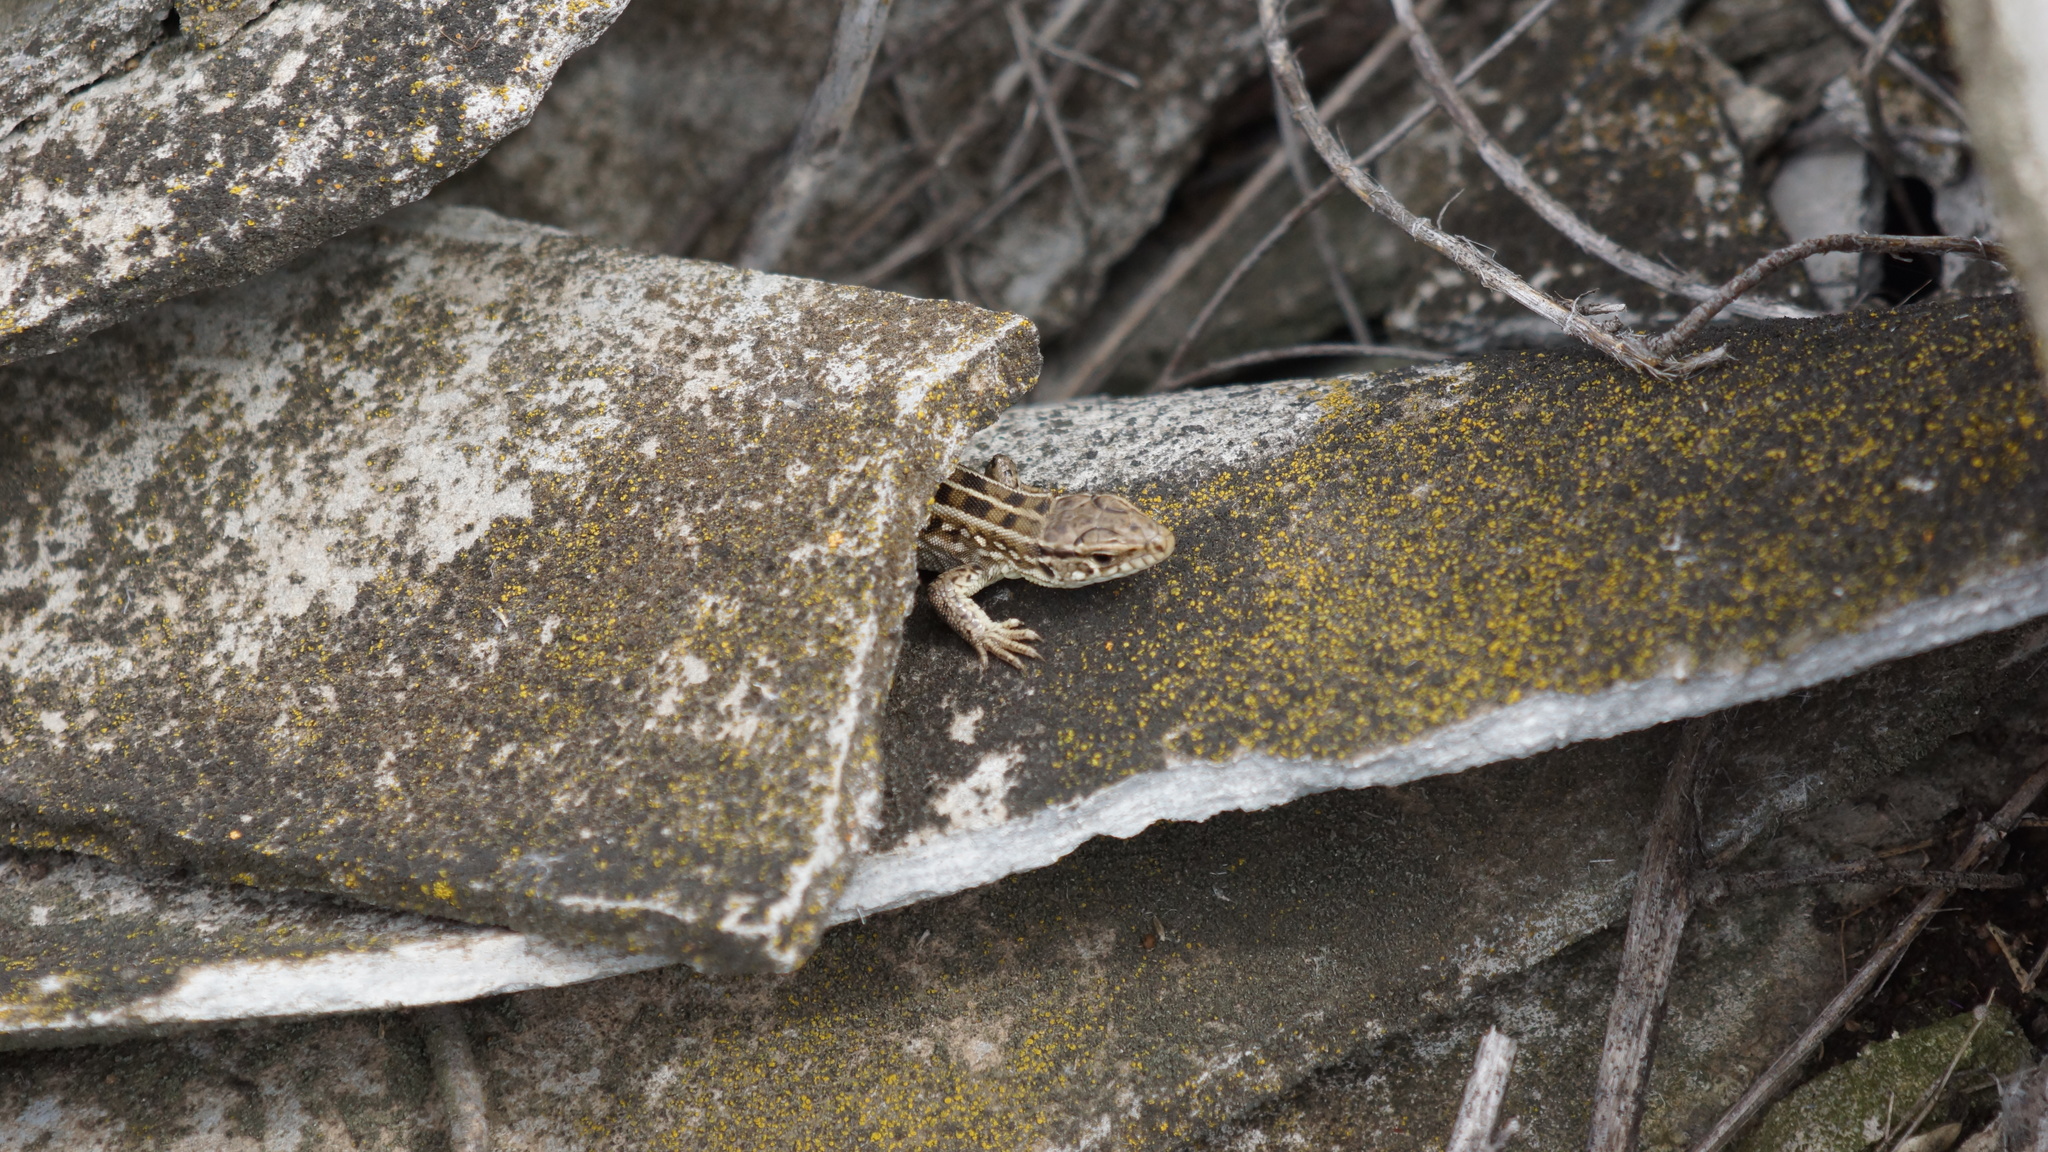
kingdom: Animalia
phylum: Chordata
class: Squamata
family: Lacertidae
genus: Lacerta
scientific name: Lacerta agilis
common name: Sand lizard
